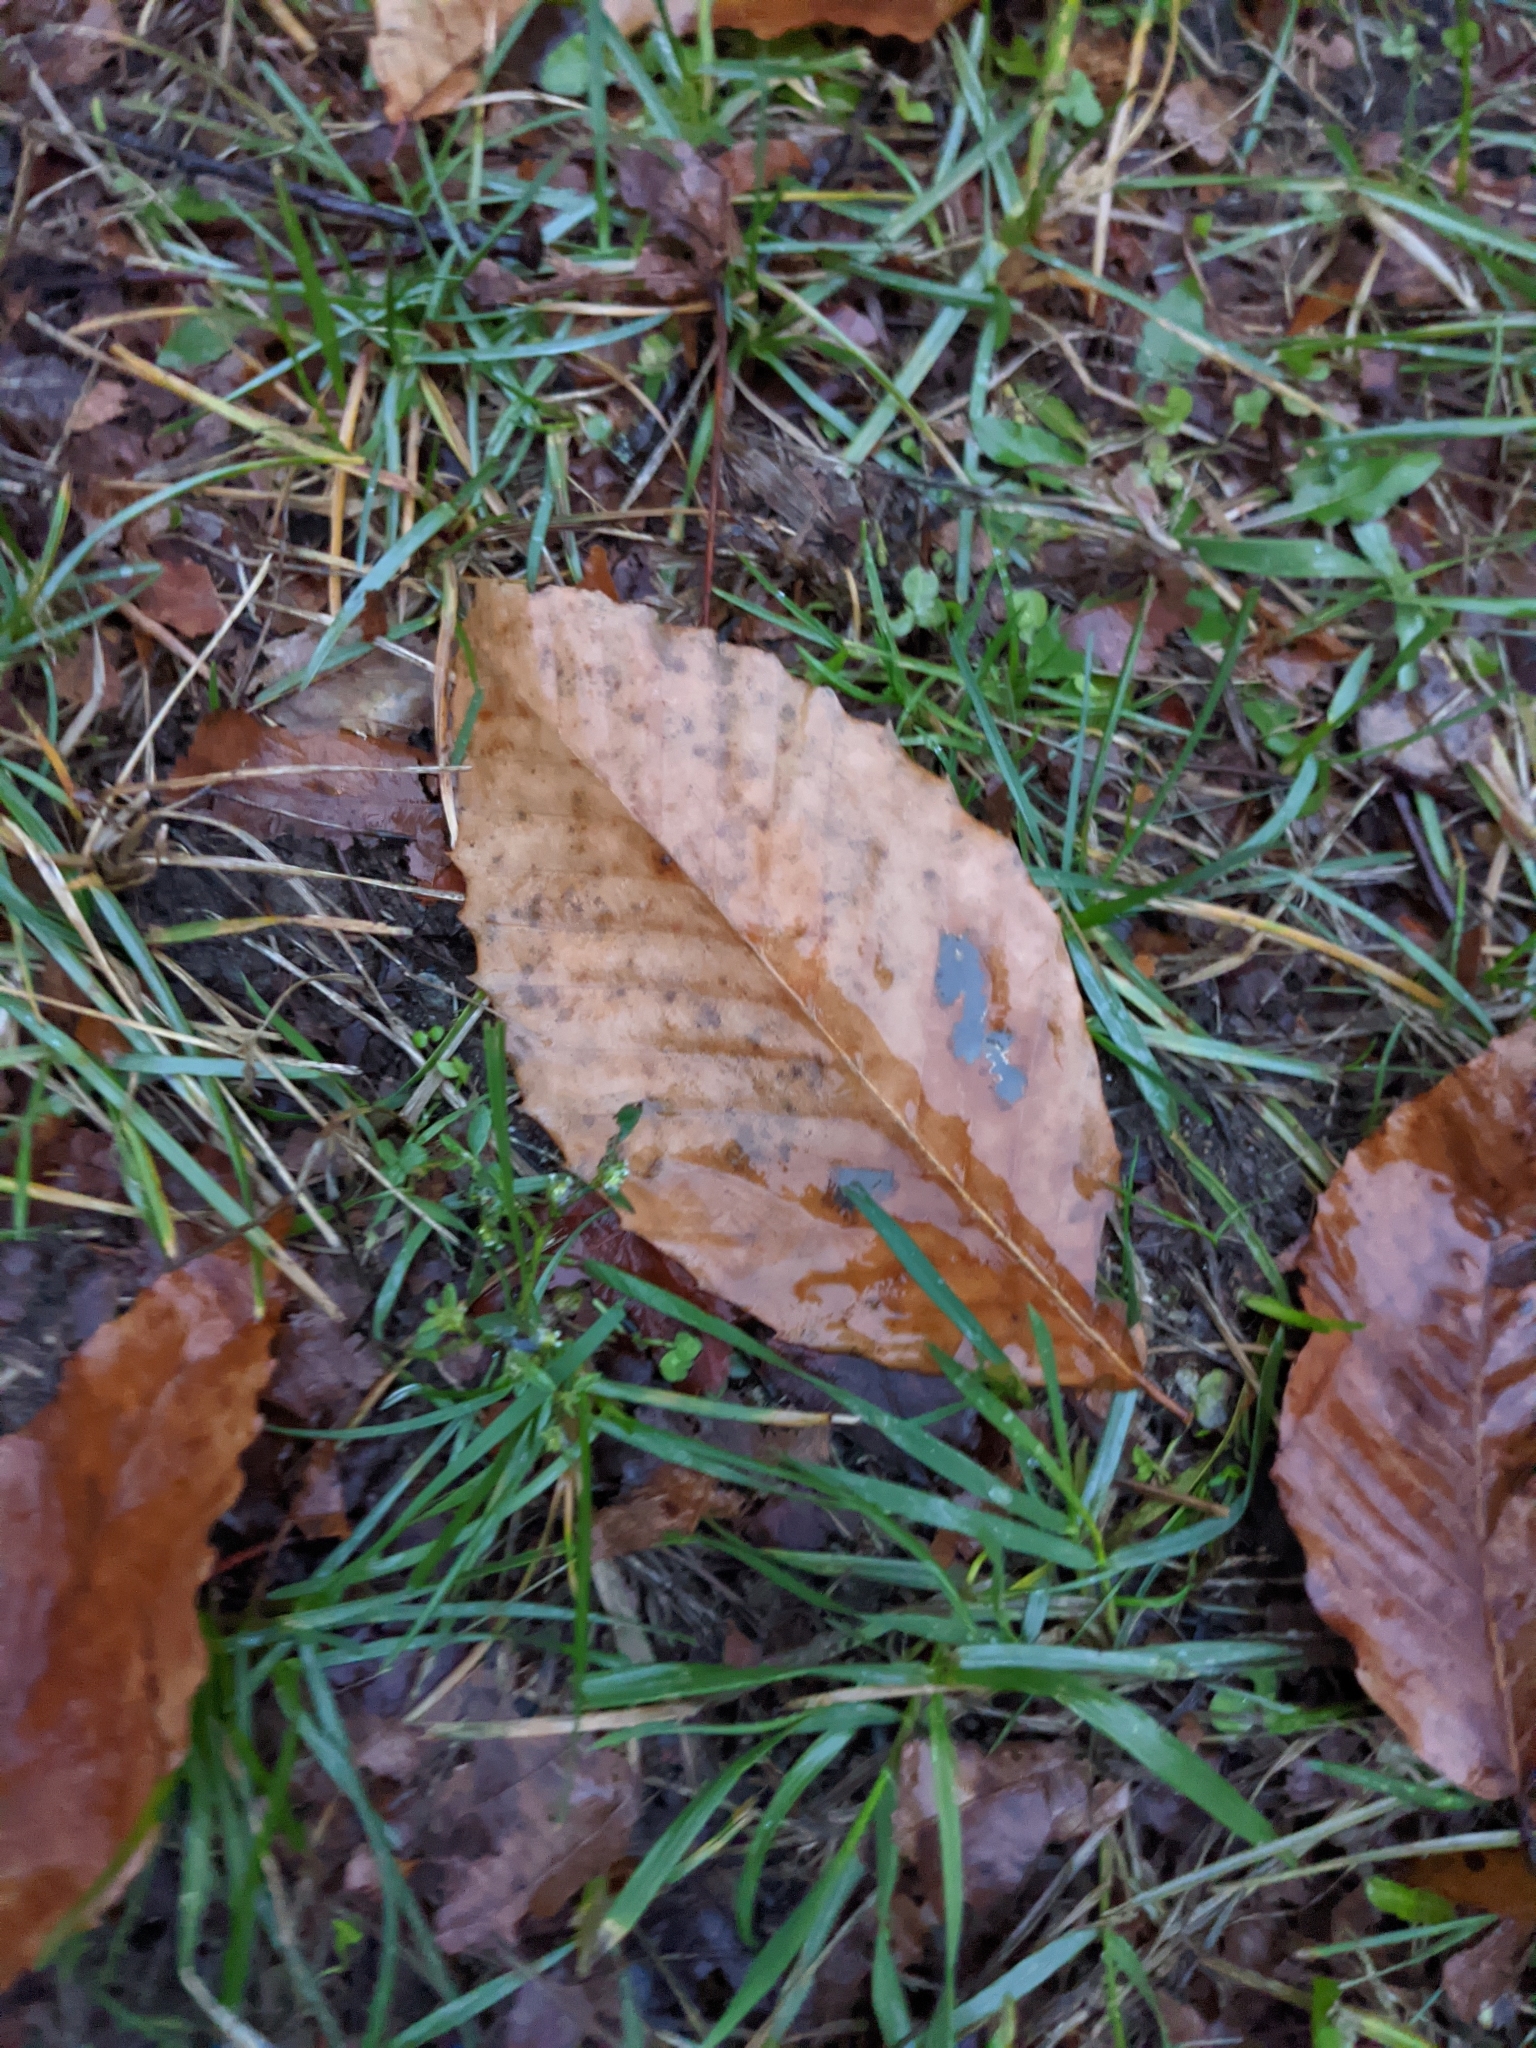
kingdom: Plantae
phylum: Tracheophyta
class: Magnoliopsida
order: Fagales
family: Fagaceae
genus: Fagus
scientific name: Fagus grandifolia
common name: American beech
